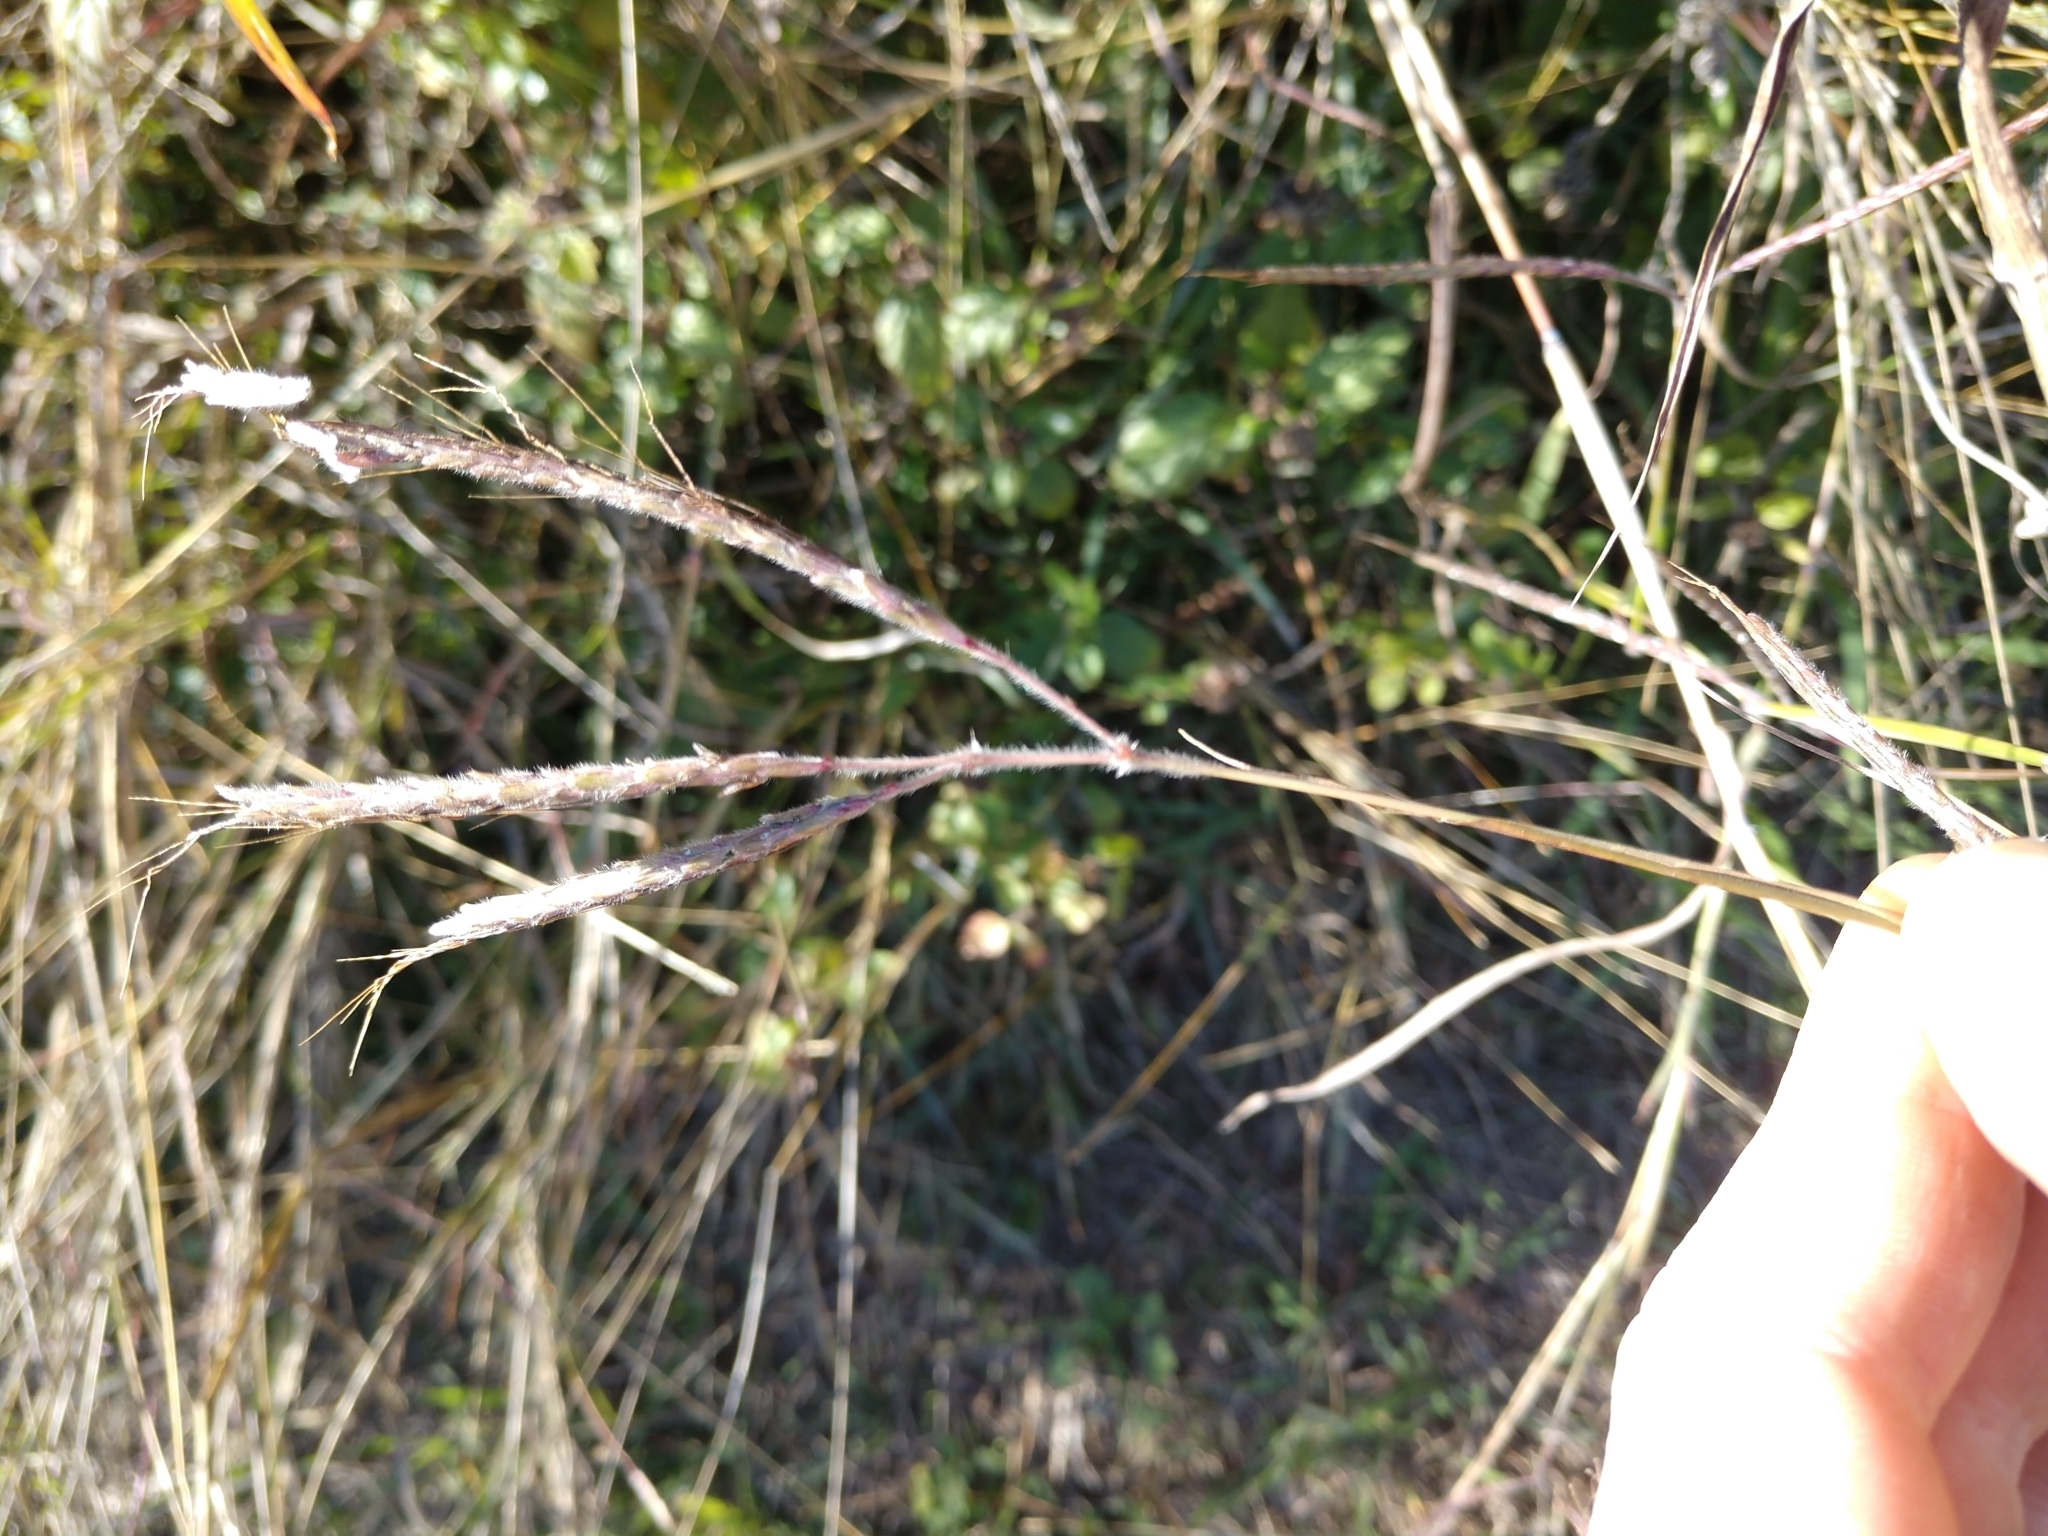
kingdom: Plantae
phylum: Tracheophyta
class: Liliopsida
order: Poales
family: Poaceae
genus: Dichanthium
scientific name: Dichanthium aristatum
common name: Angleton bluestem
